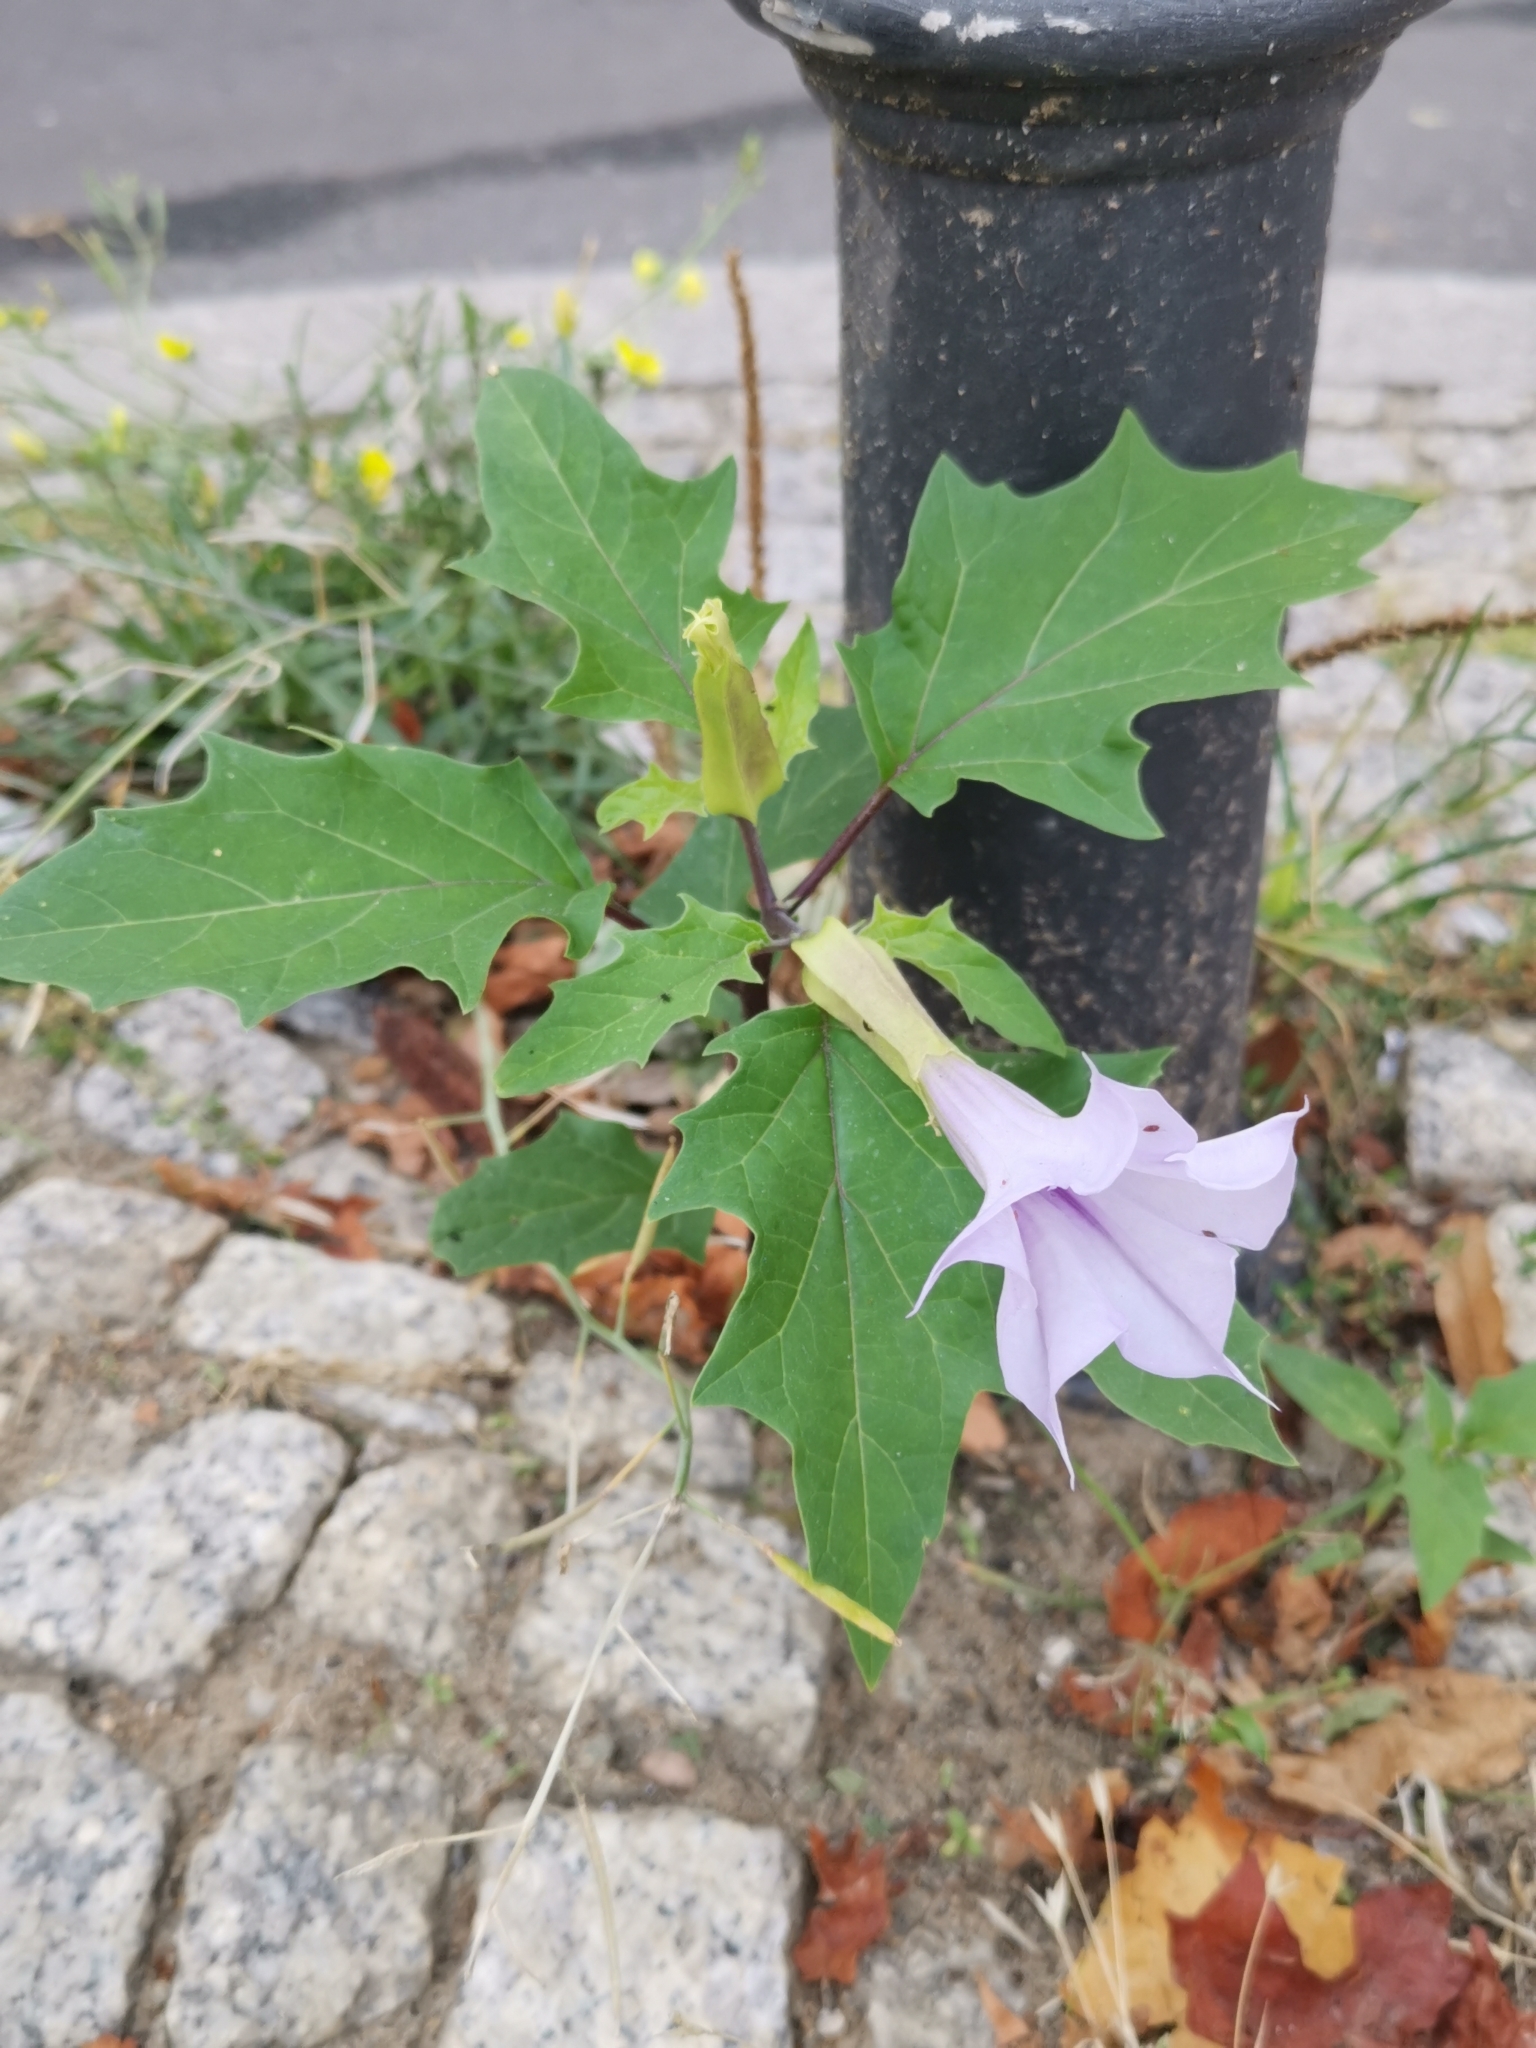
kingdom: Plantae
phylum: Tracheophyta
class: Magnoliopsida
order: Solanales
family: Solanaceae
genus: Datura
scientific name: Datura stramonium
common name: Thorn-apple
